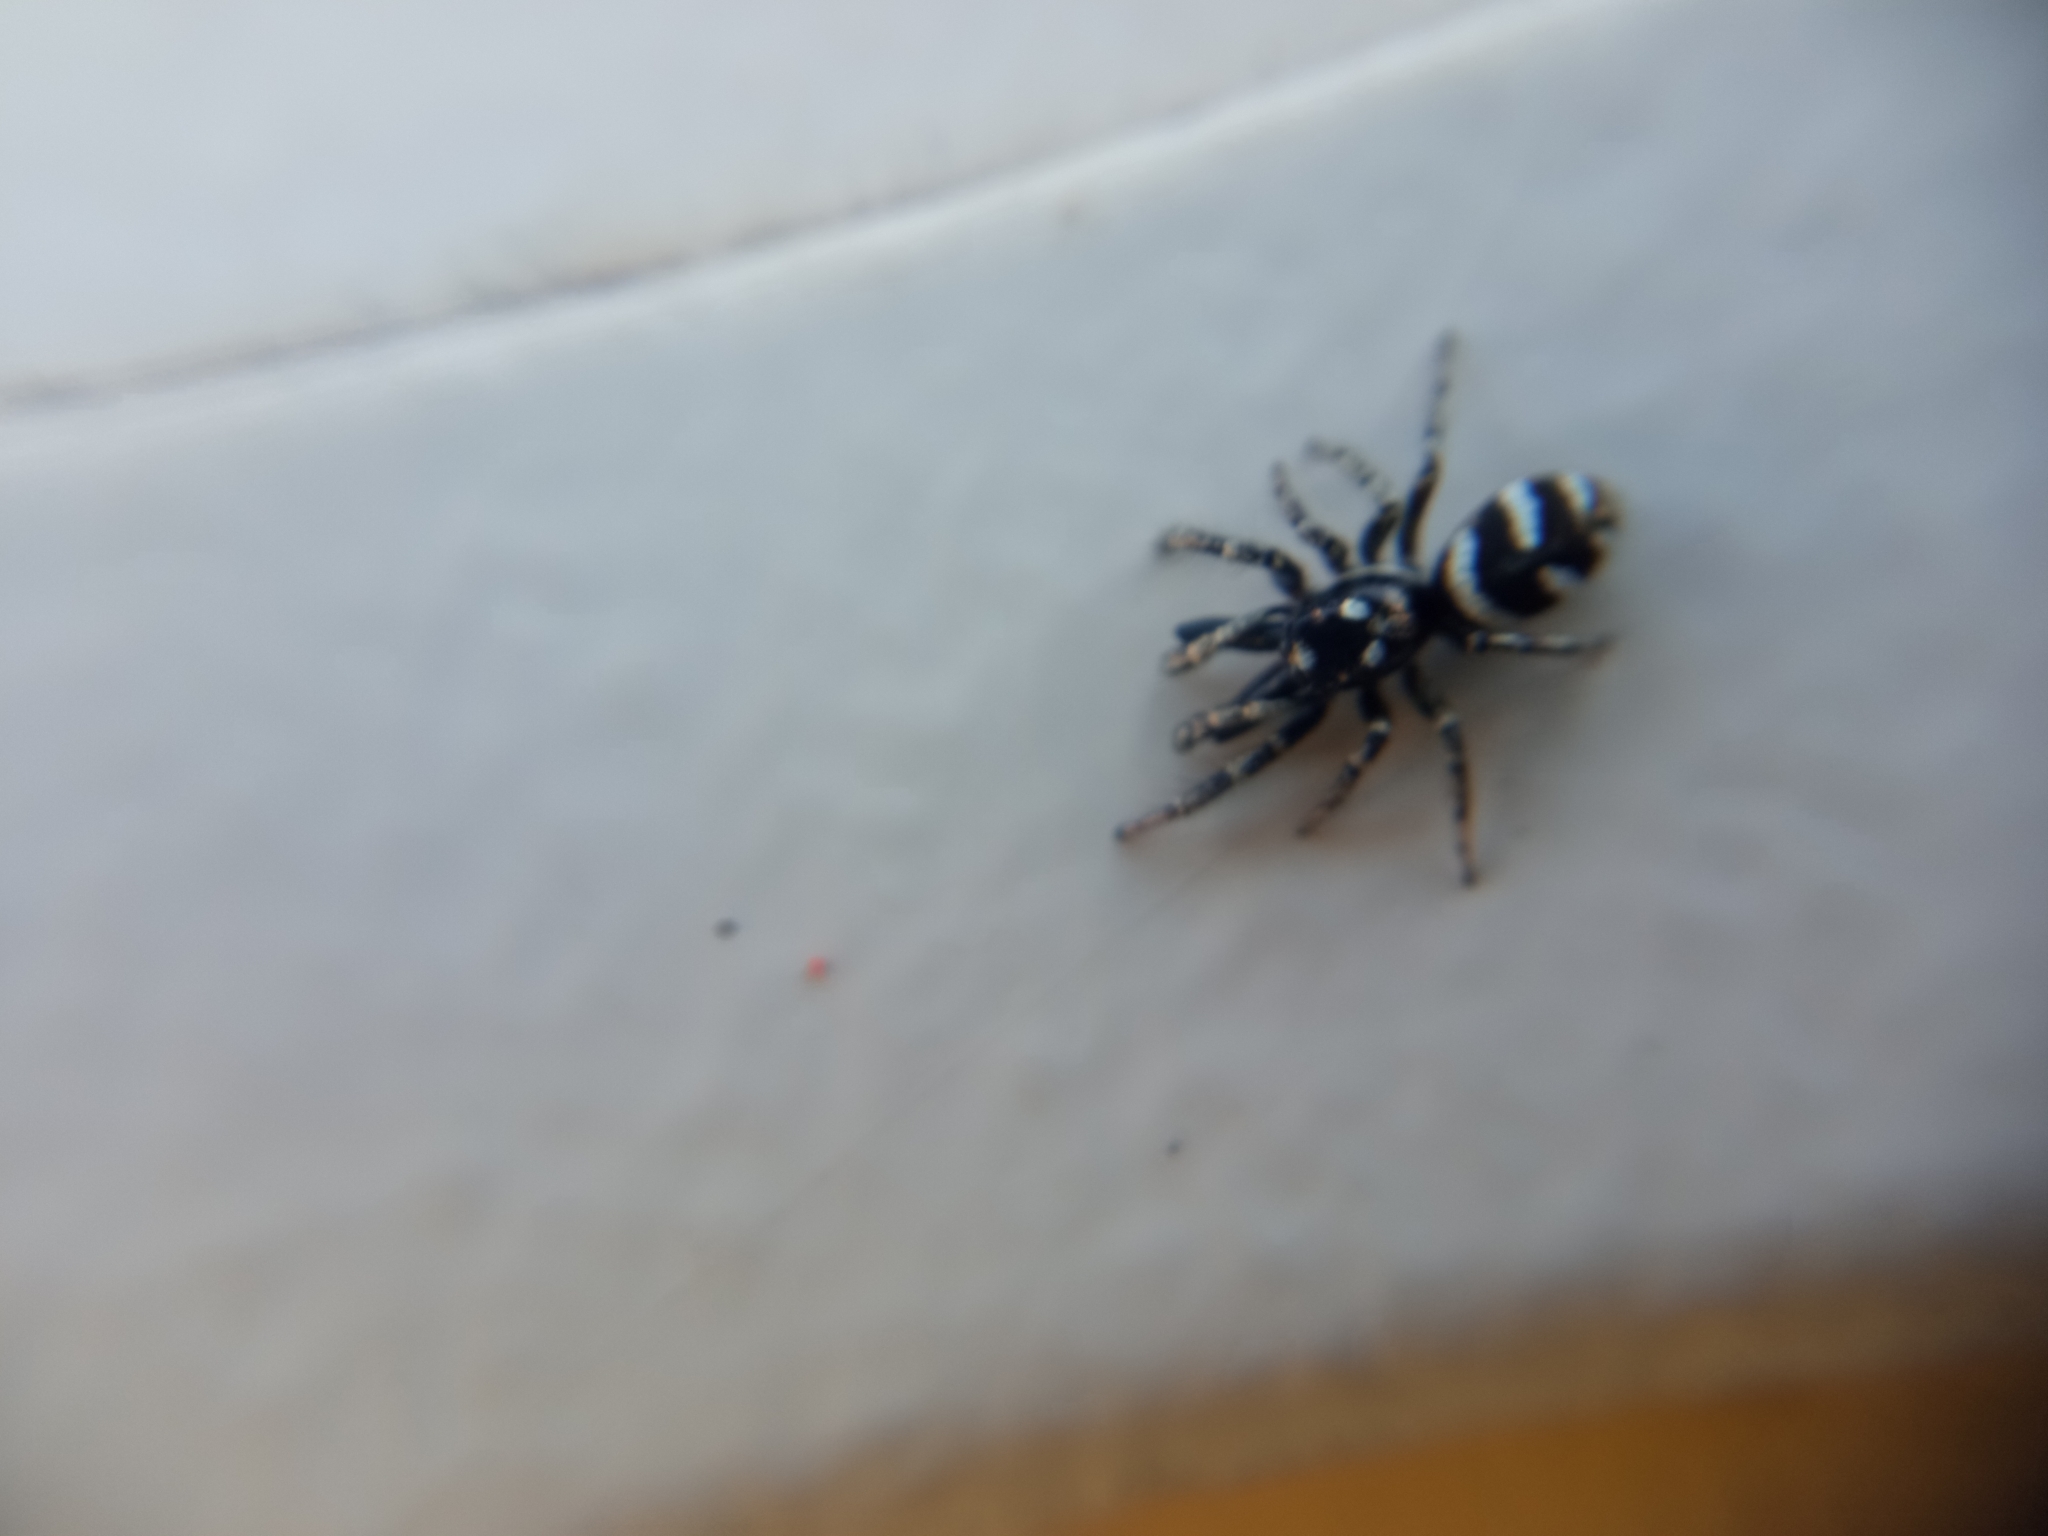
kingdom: Animalia
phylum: Arthropoda
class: Arachnida
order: Araneae
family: Salticidae
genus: Salticus
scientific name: Salticus scenicus
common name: Zebra jumper
